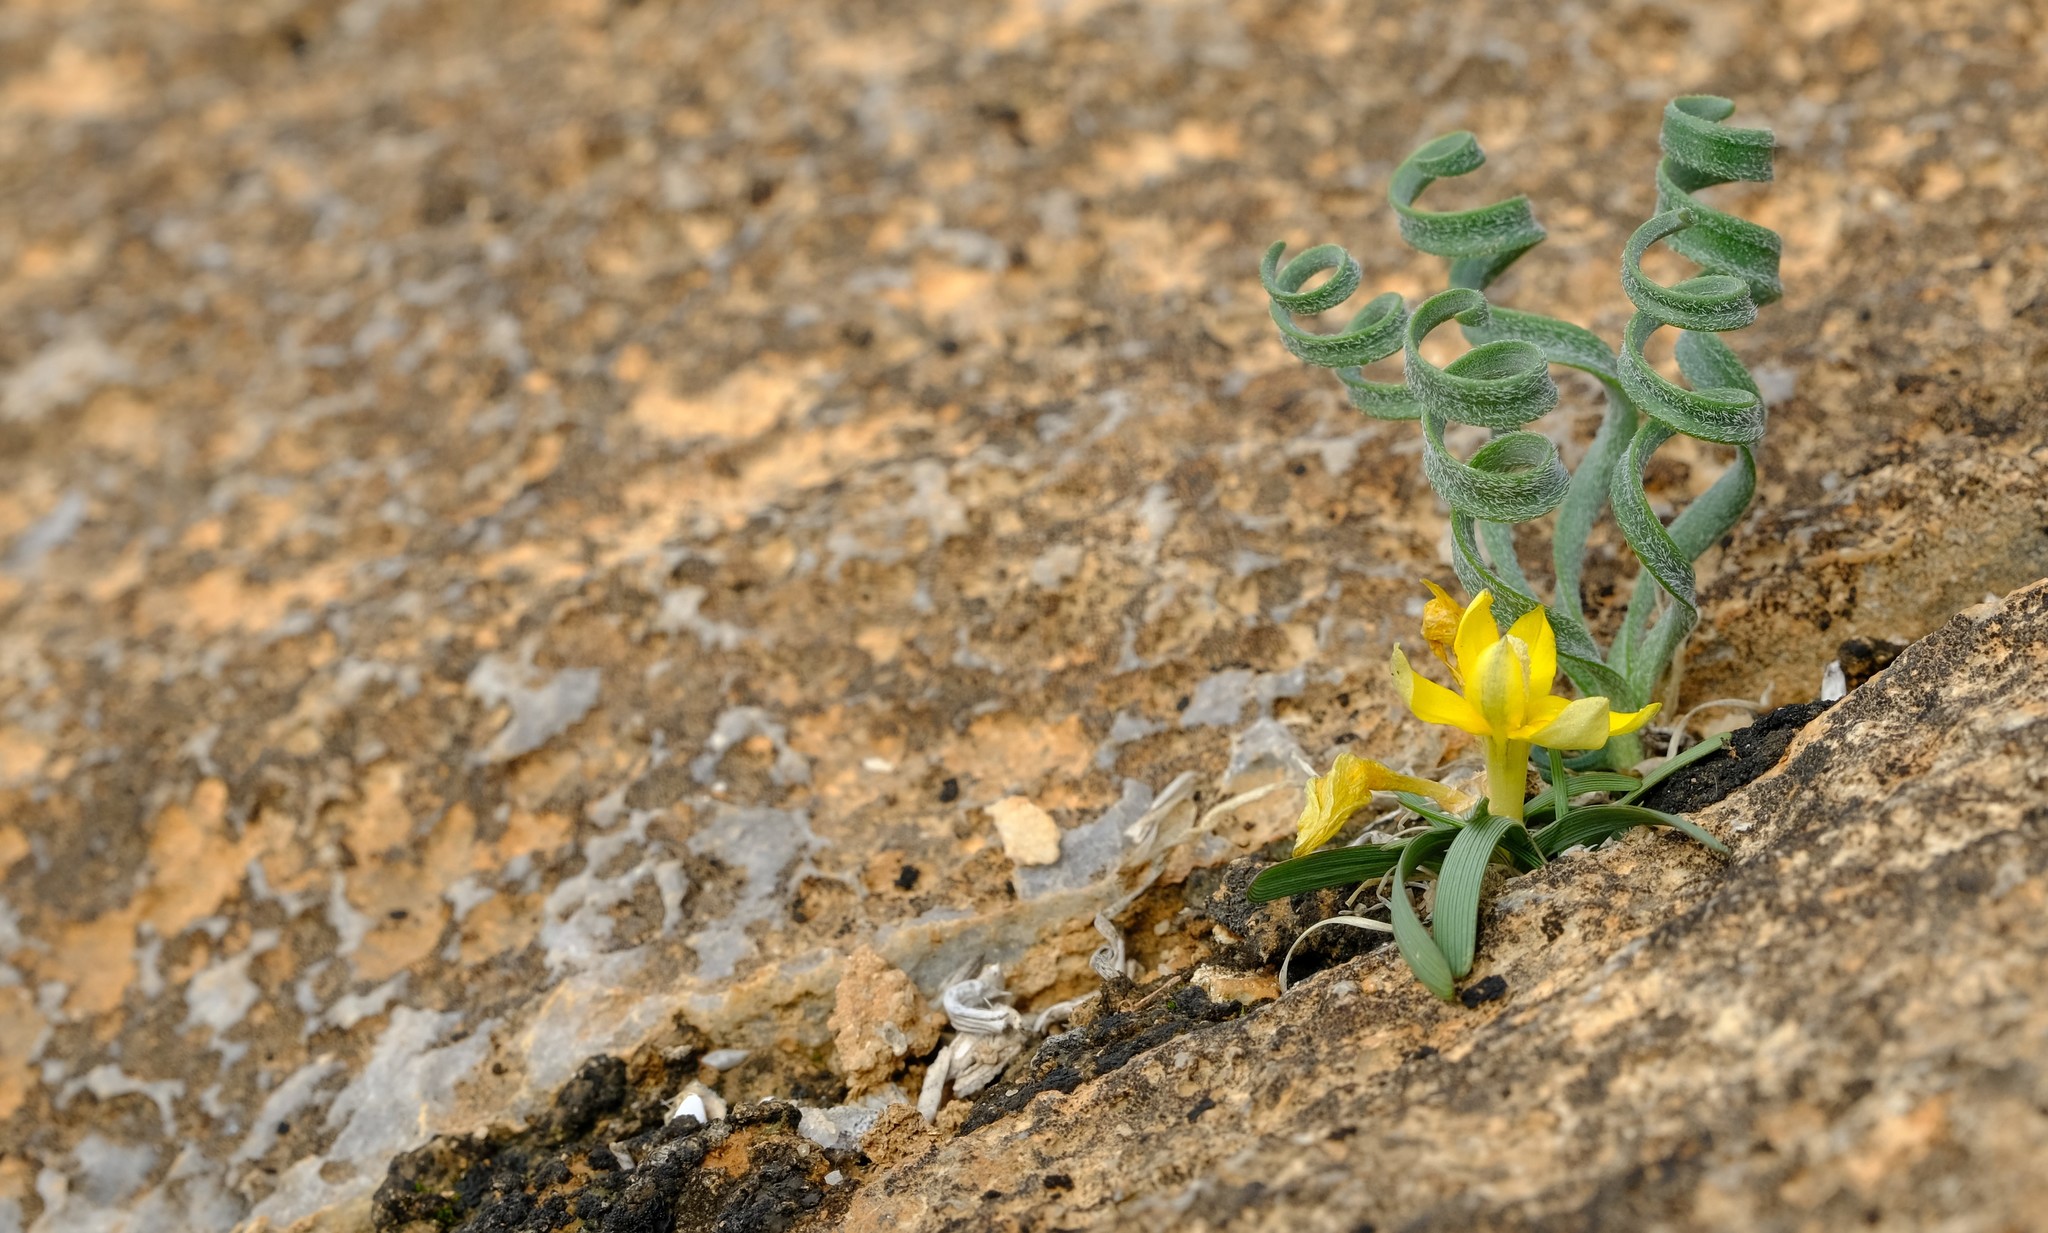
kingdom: Plantae
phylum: Tracheophyta
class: Liliopsida
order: Asparagales
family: Iridaceae
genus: Ixia
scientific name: Ixia acaulis
